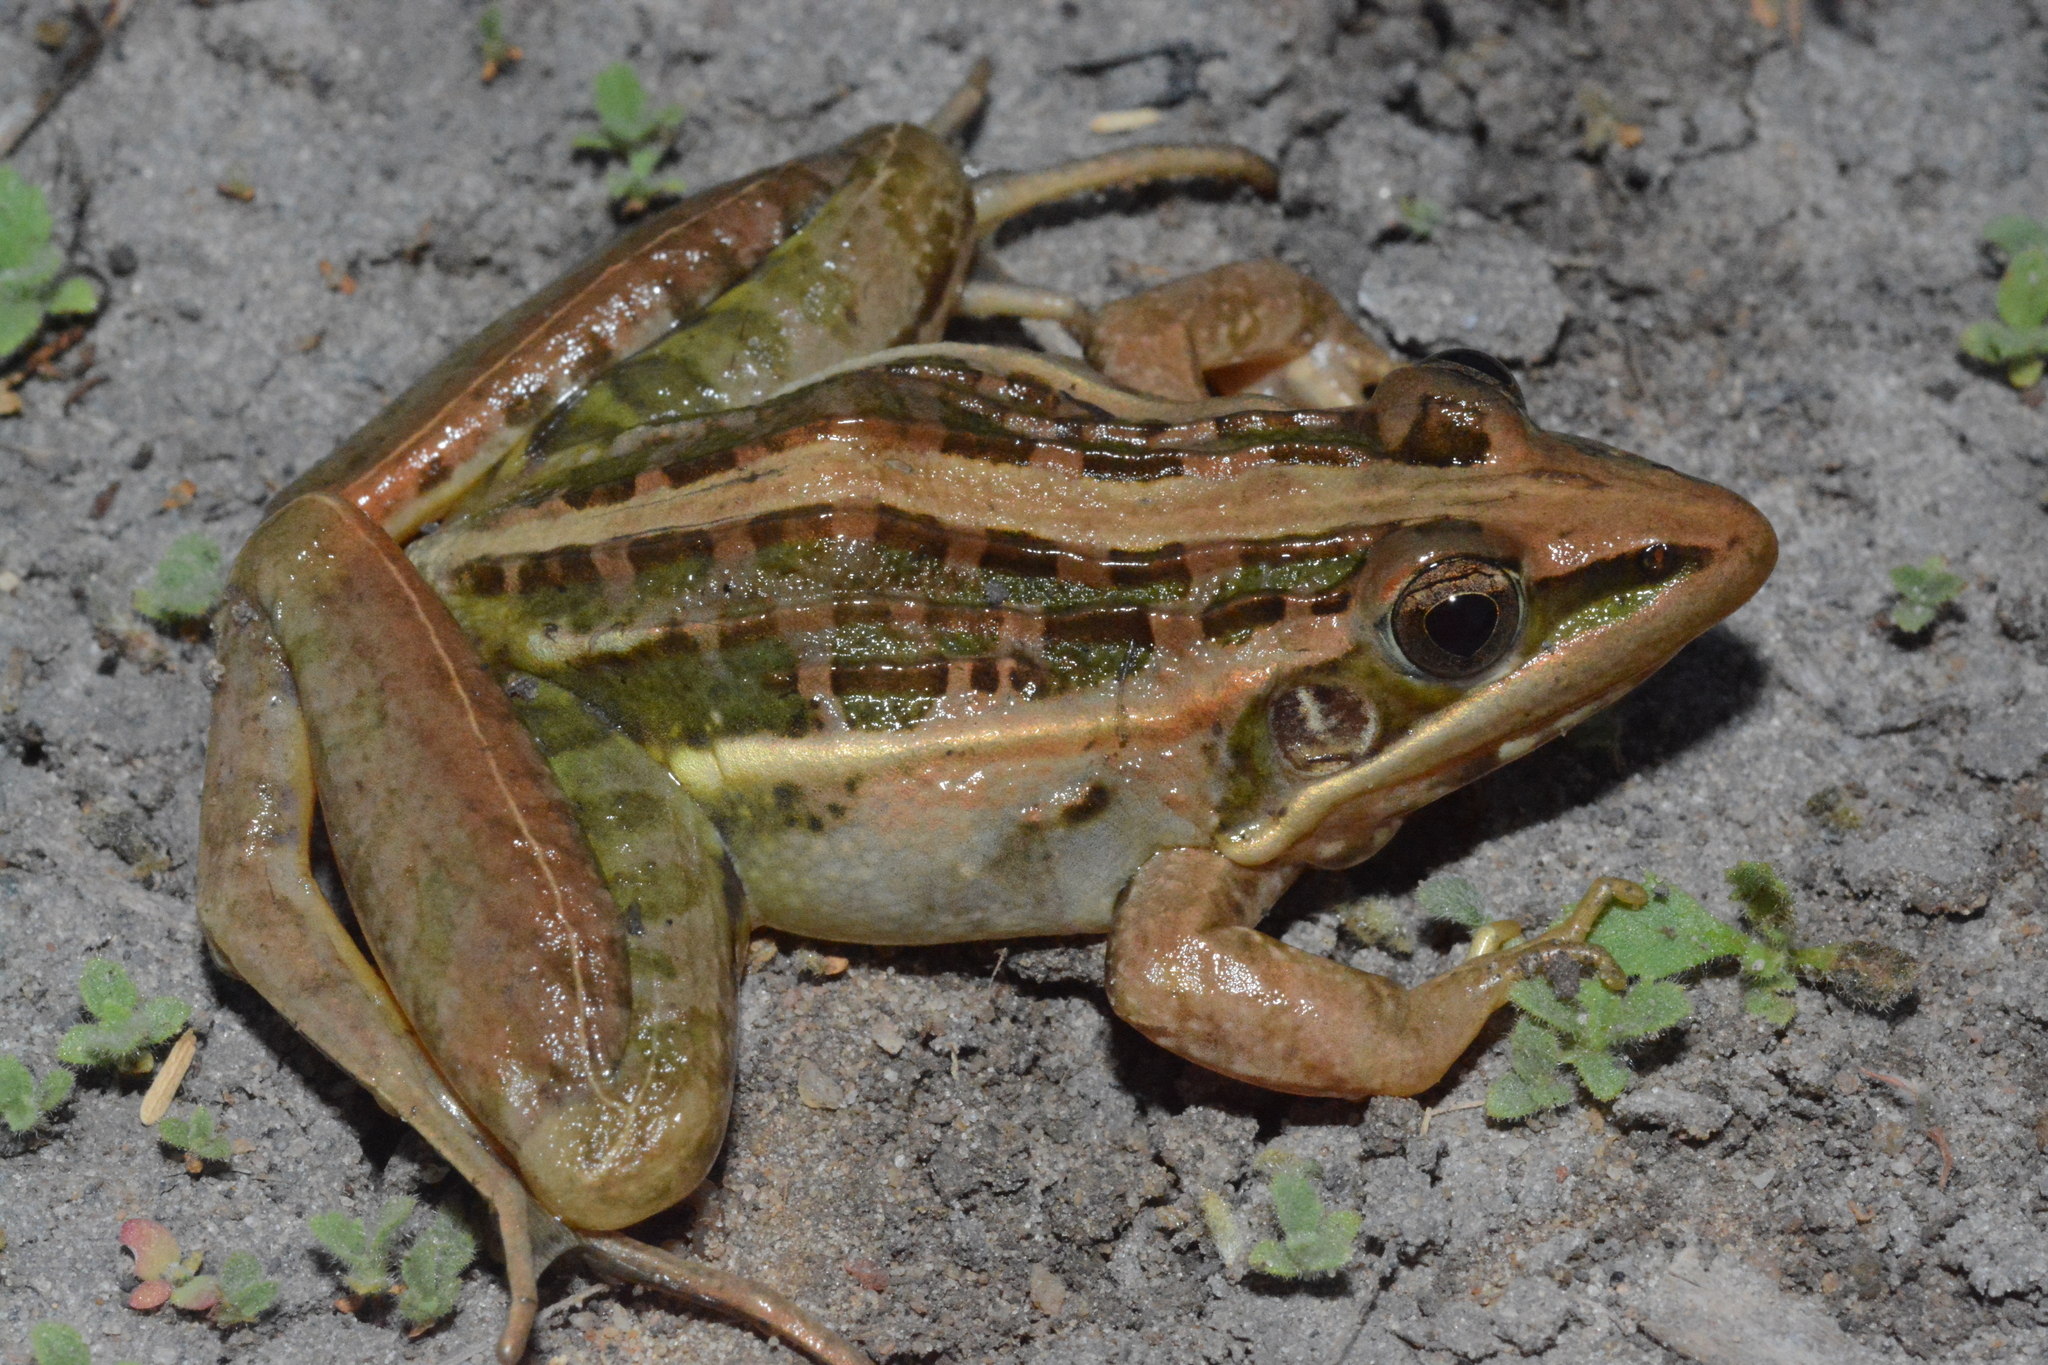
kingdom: Animalia
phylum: Chordata
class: Amphibia
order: Anura
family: Ptychadenidae
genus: Ptychadena
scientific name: Ptychadena nilotica
